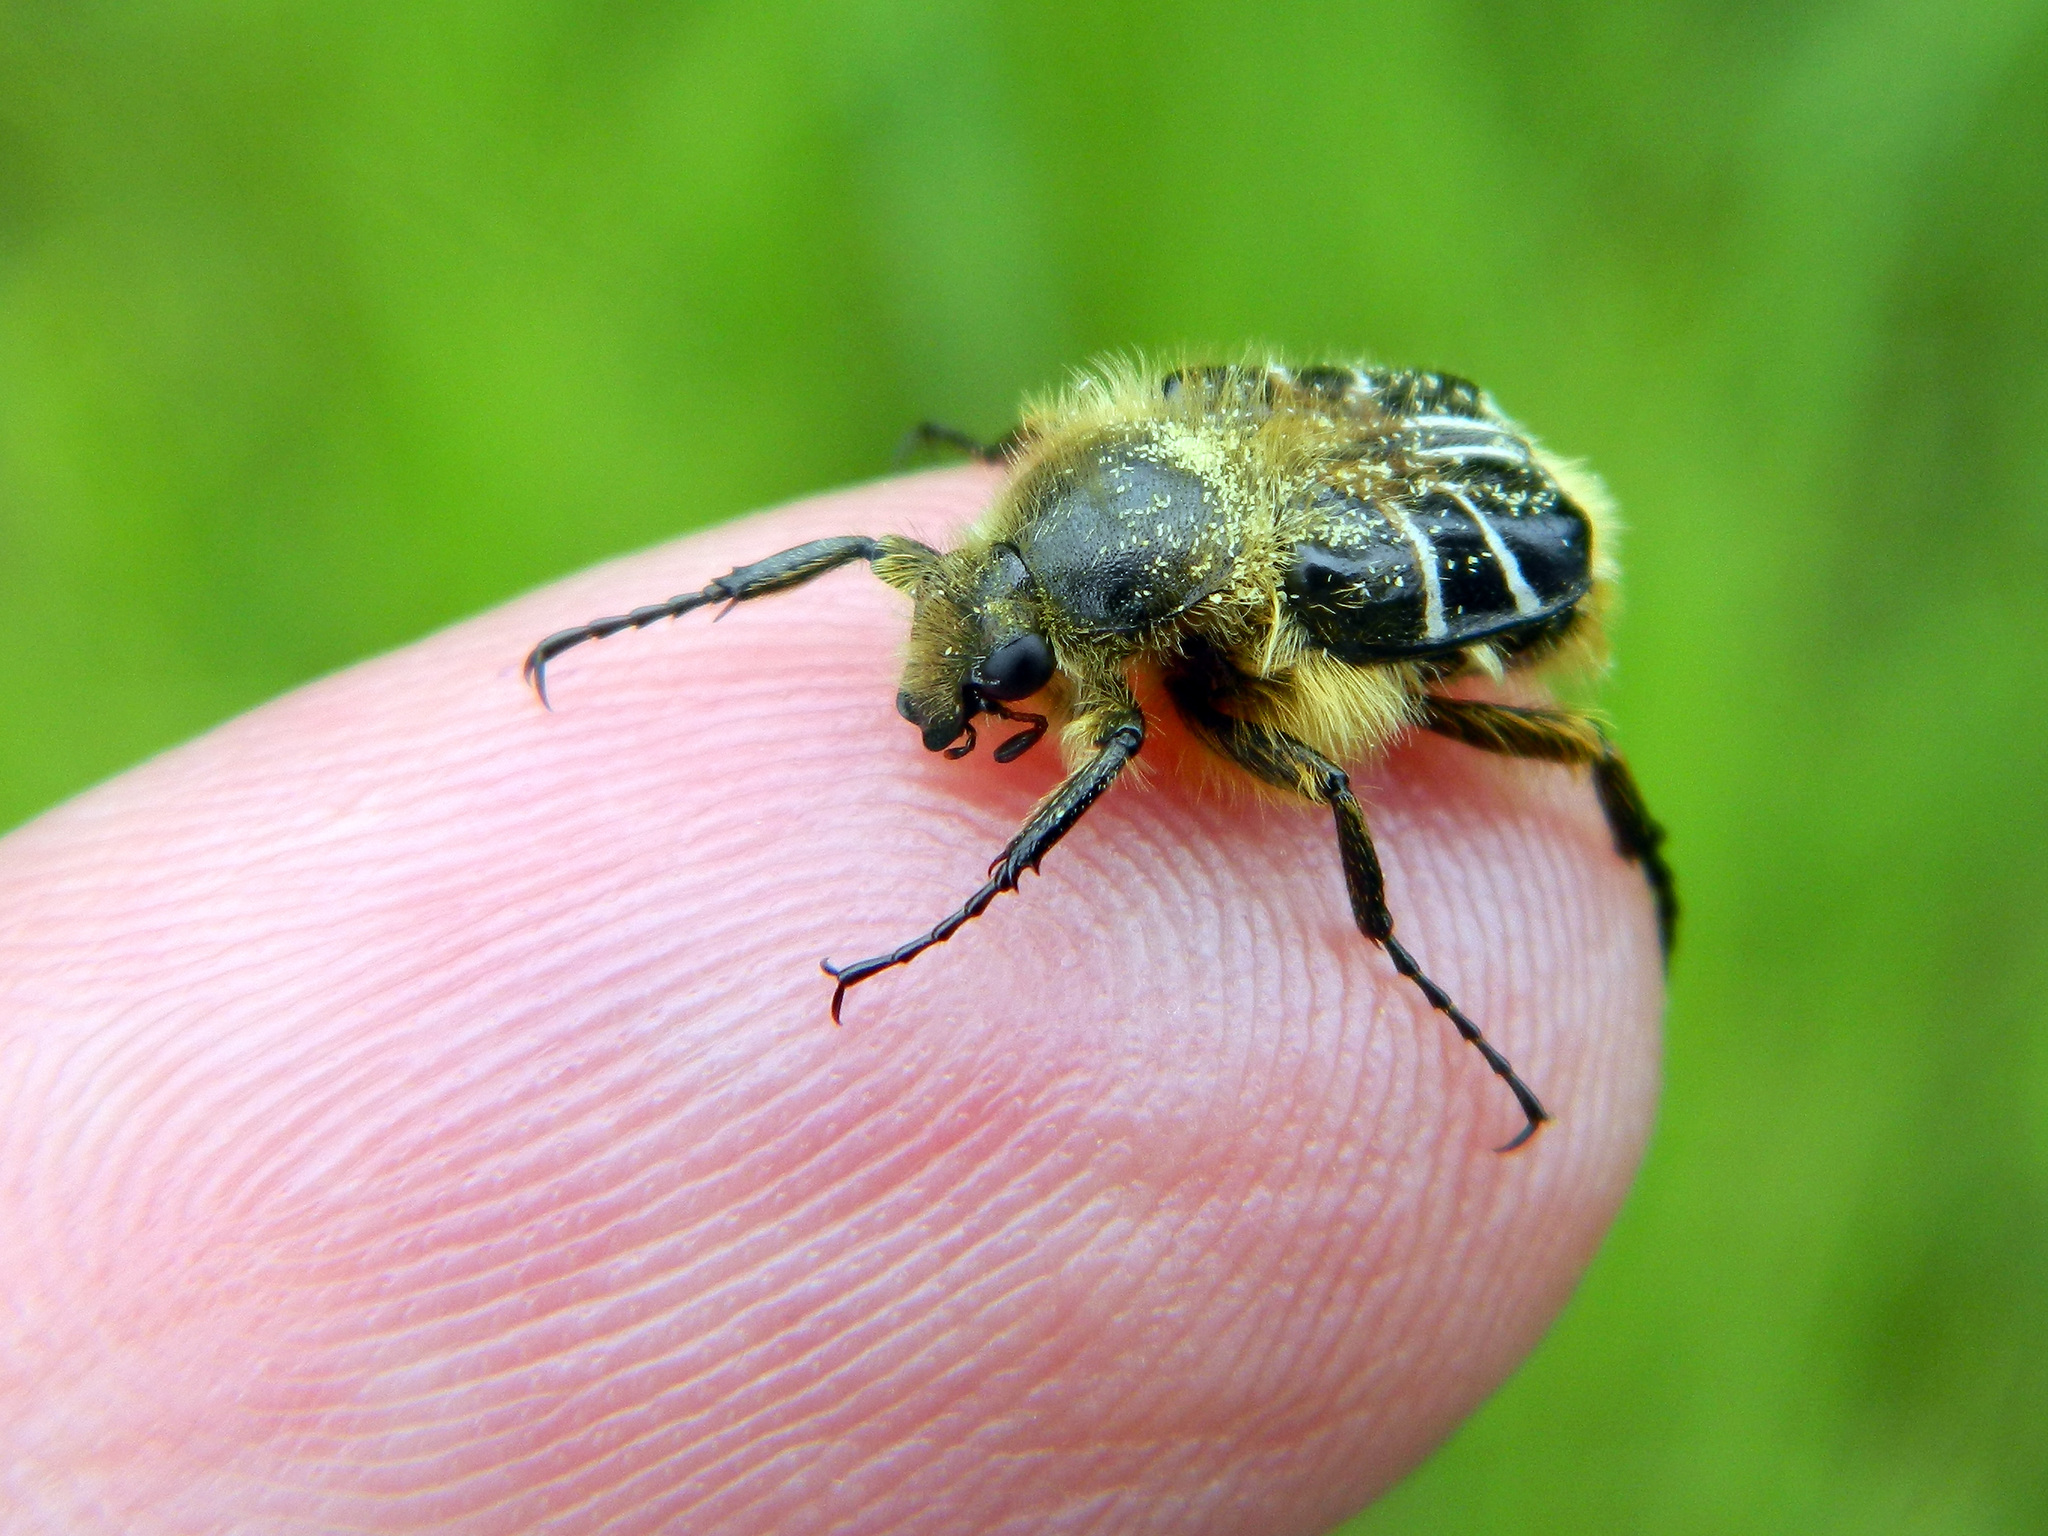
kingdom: Animalia
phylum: Arthropoda
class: Insecta
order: Coleoptera
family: Scarabaeidae
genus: Trichiotinus
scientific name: Trichiotinus assimilis
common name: Bee-mimic beetle
